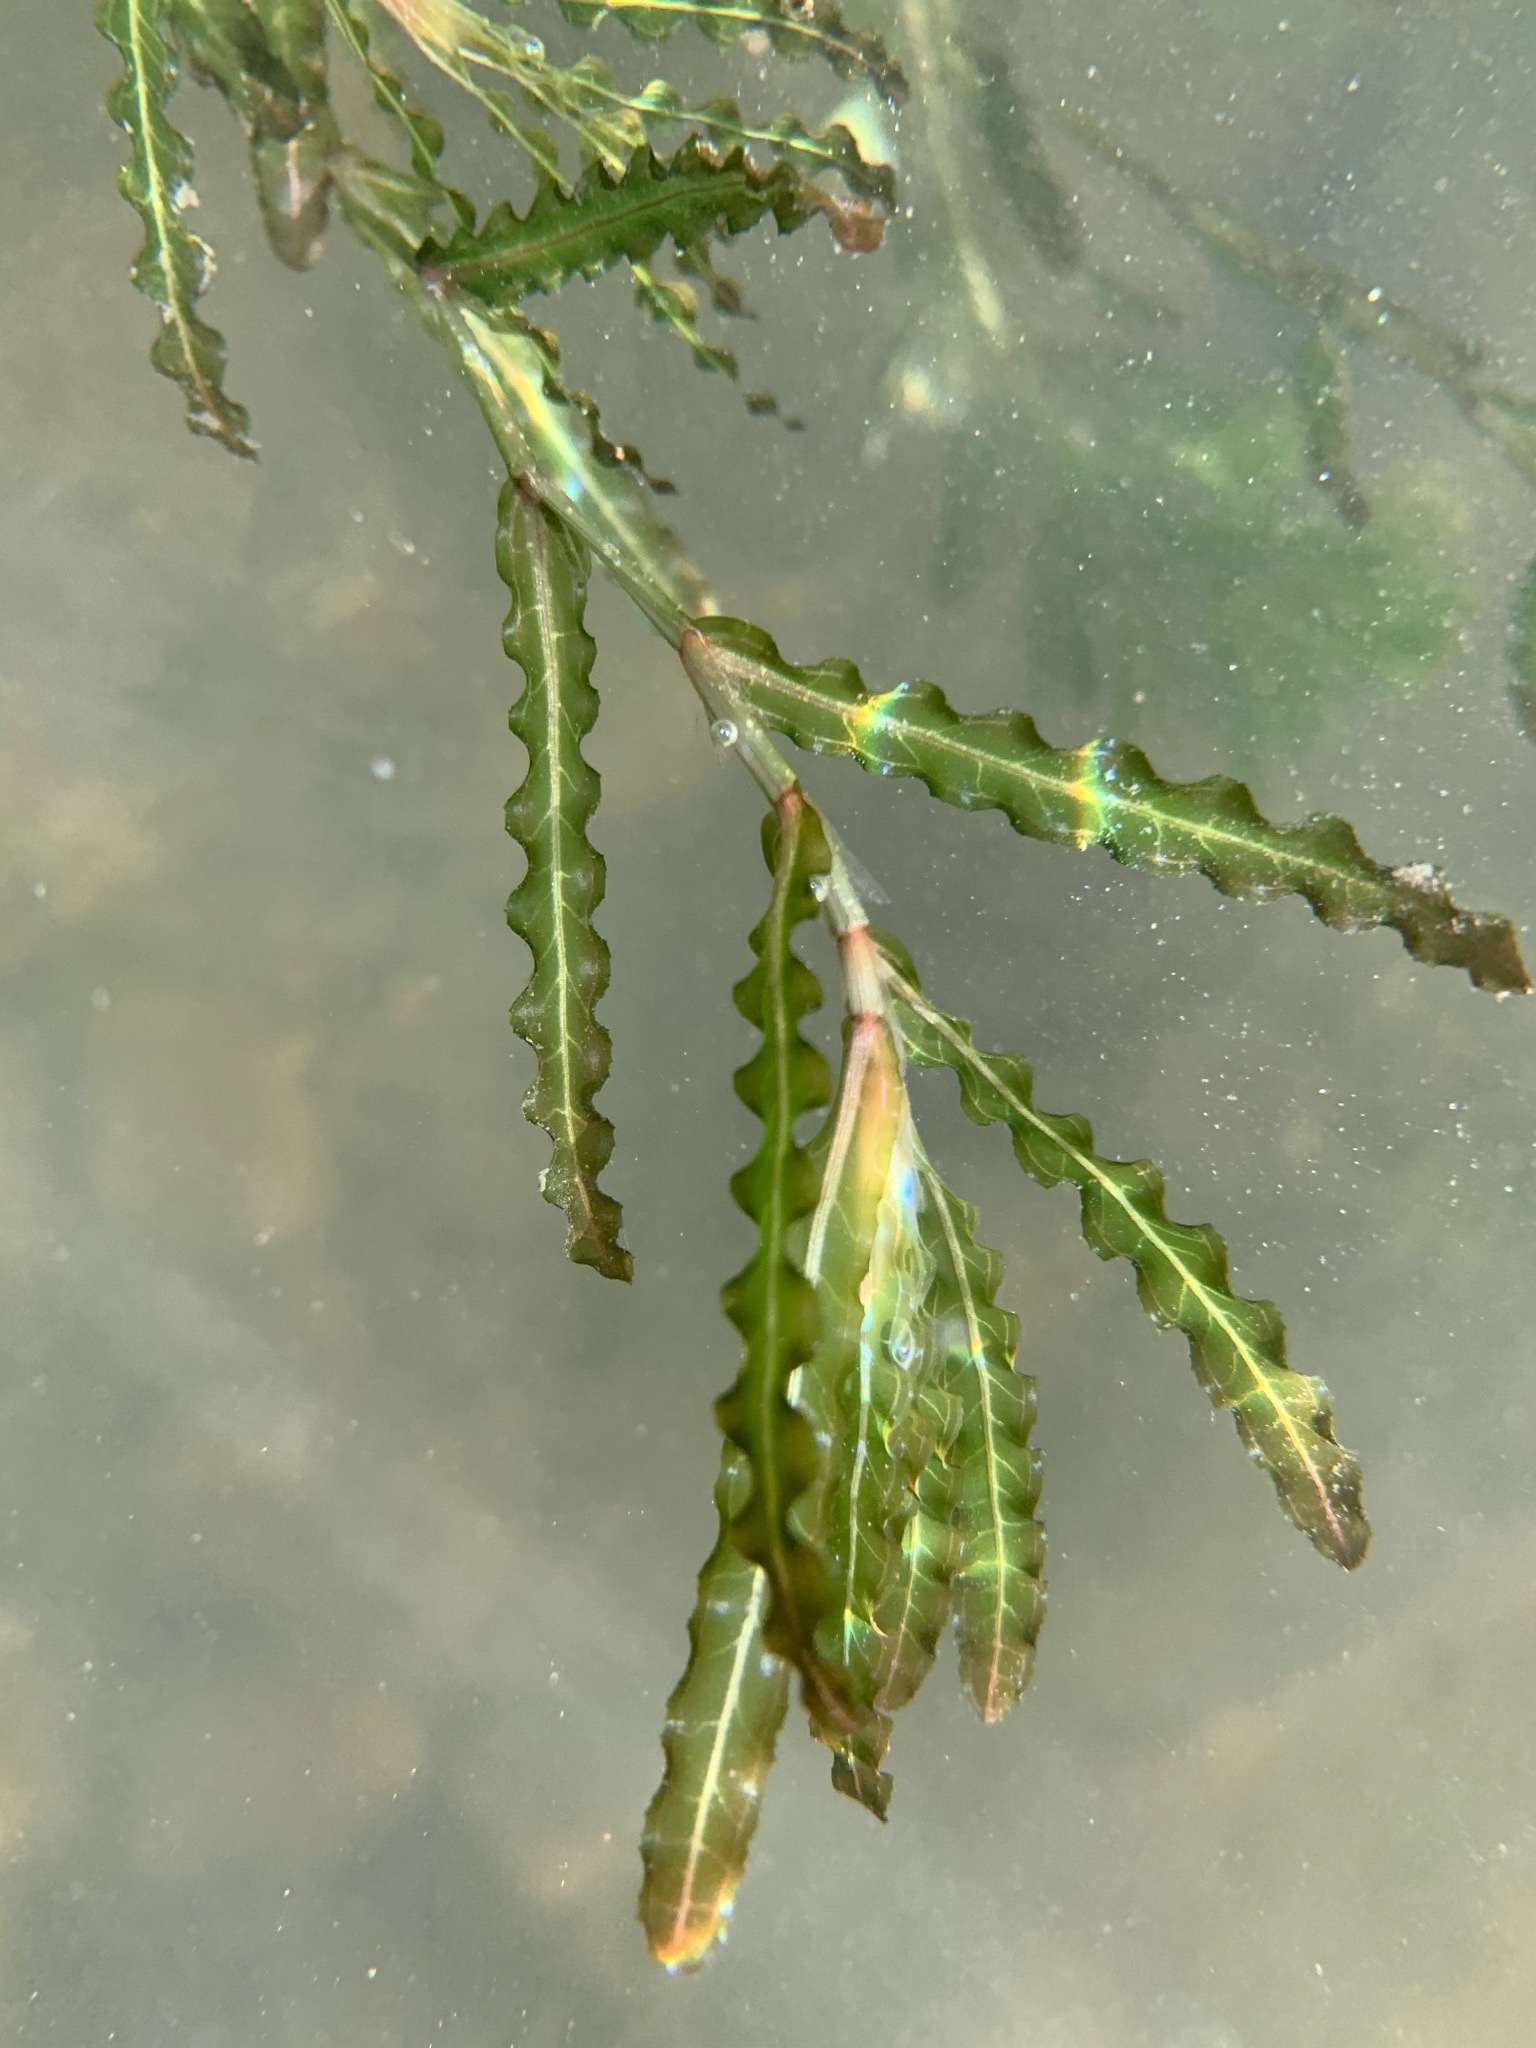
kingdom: Plantae
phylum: Tracheophyta
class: Liliopsida
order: Alismatales
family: Potamogetonaceae
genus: Potamogeton
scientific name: Potamogeton crispus
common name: Curled pondweed
